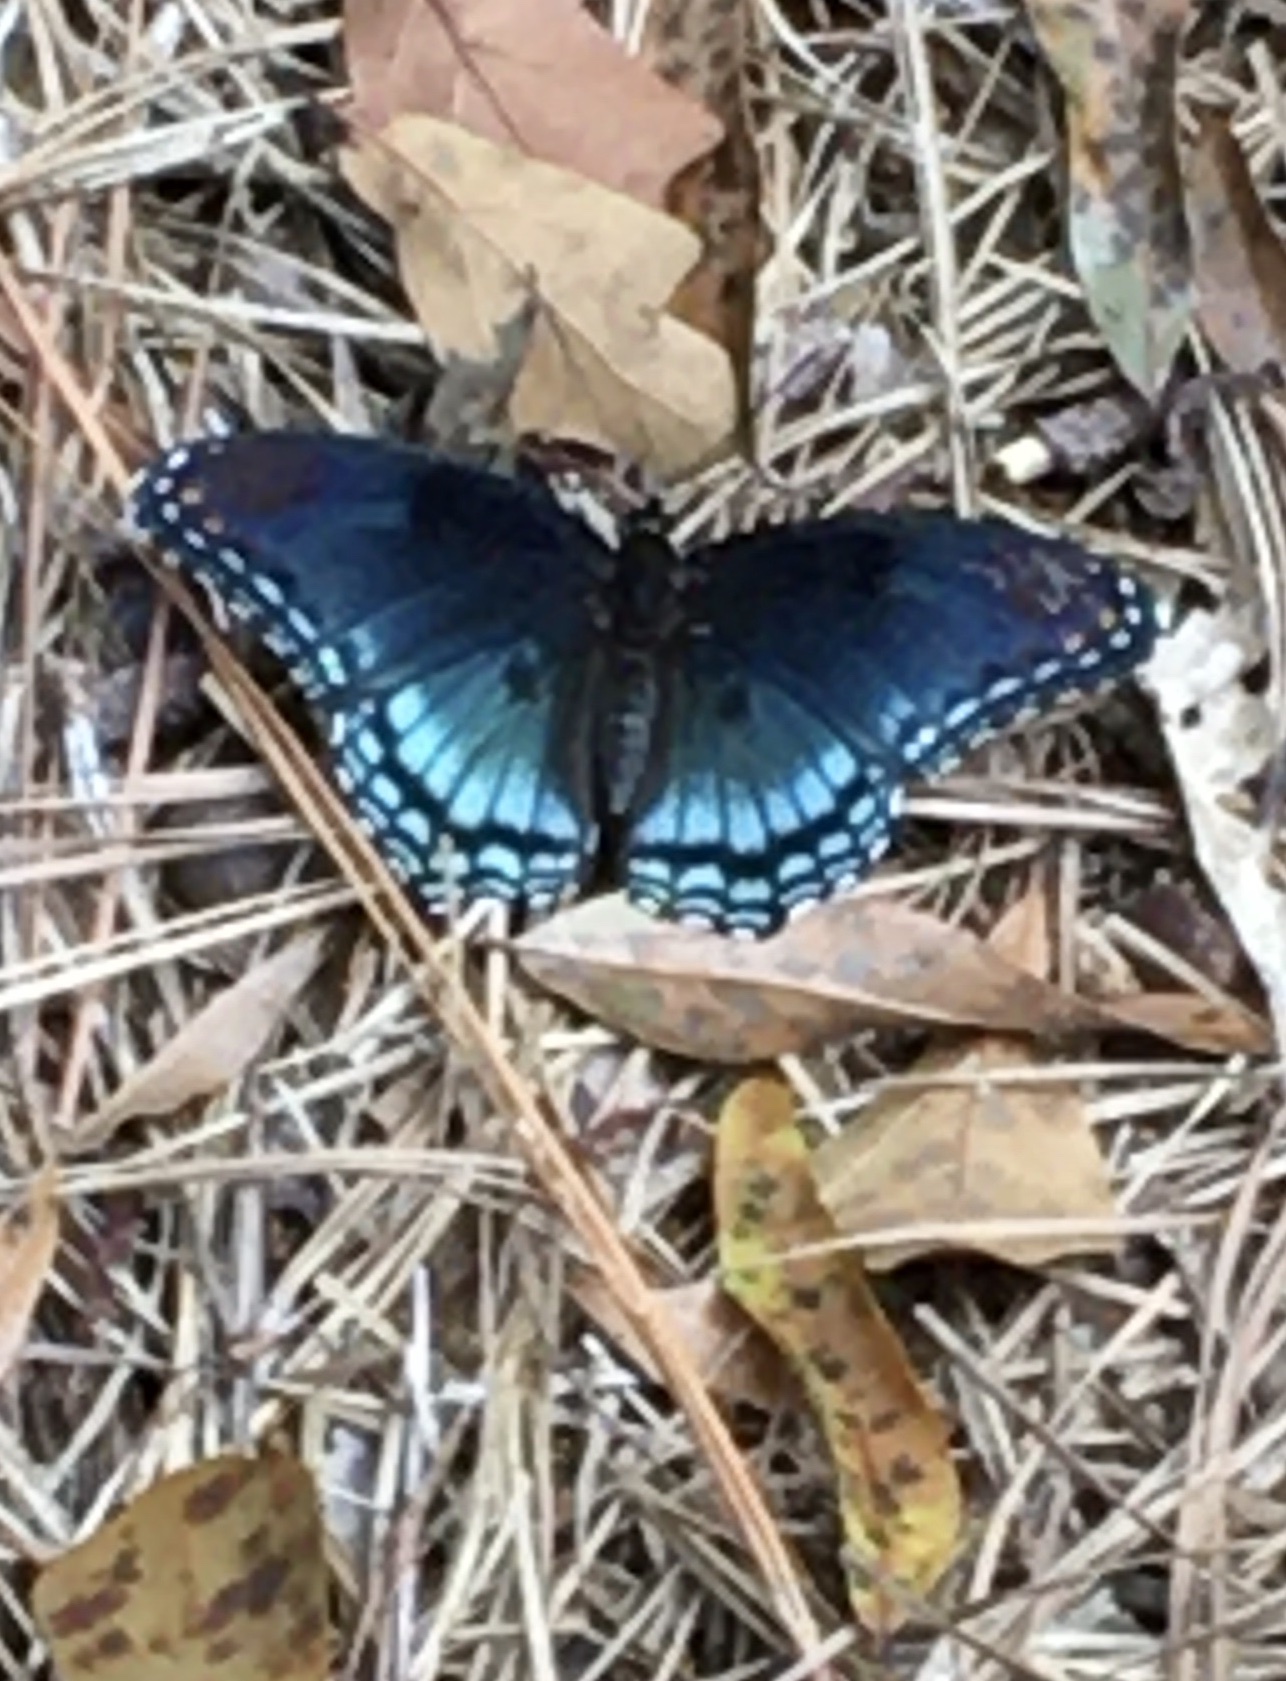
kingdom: Animalia
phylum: Arthropoda
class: Insecta
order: Lepidoptera
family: Nymphalidae
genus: Limenitis
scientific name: Limenitis astyanax
